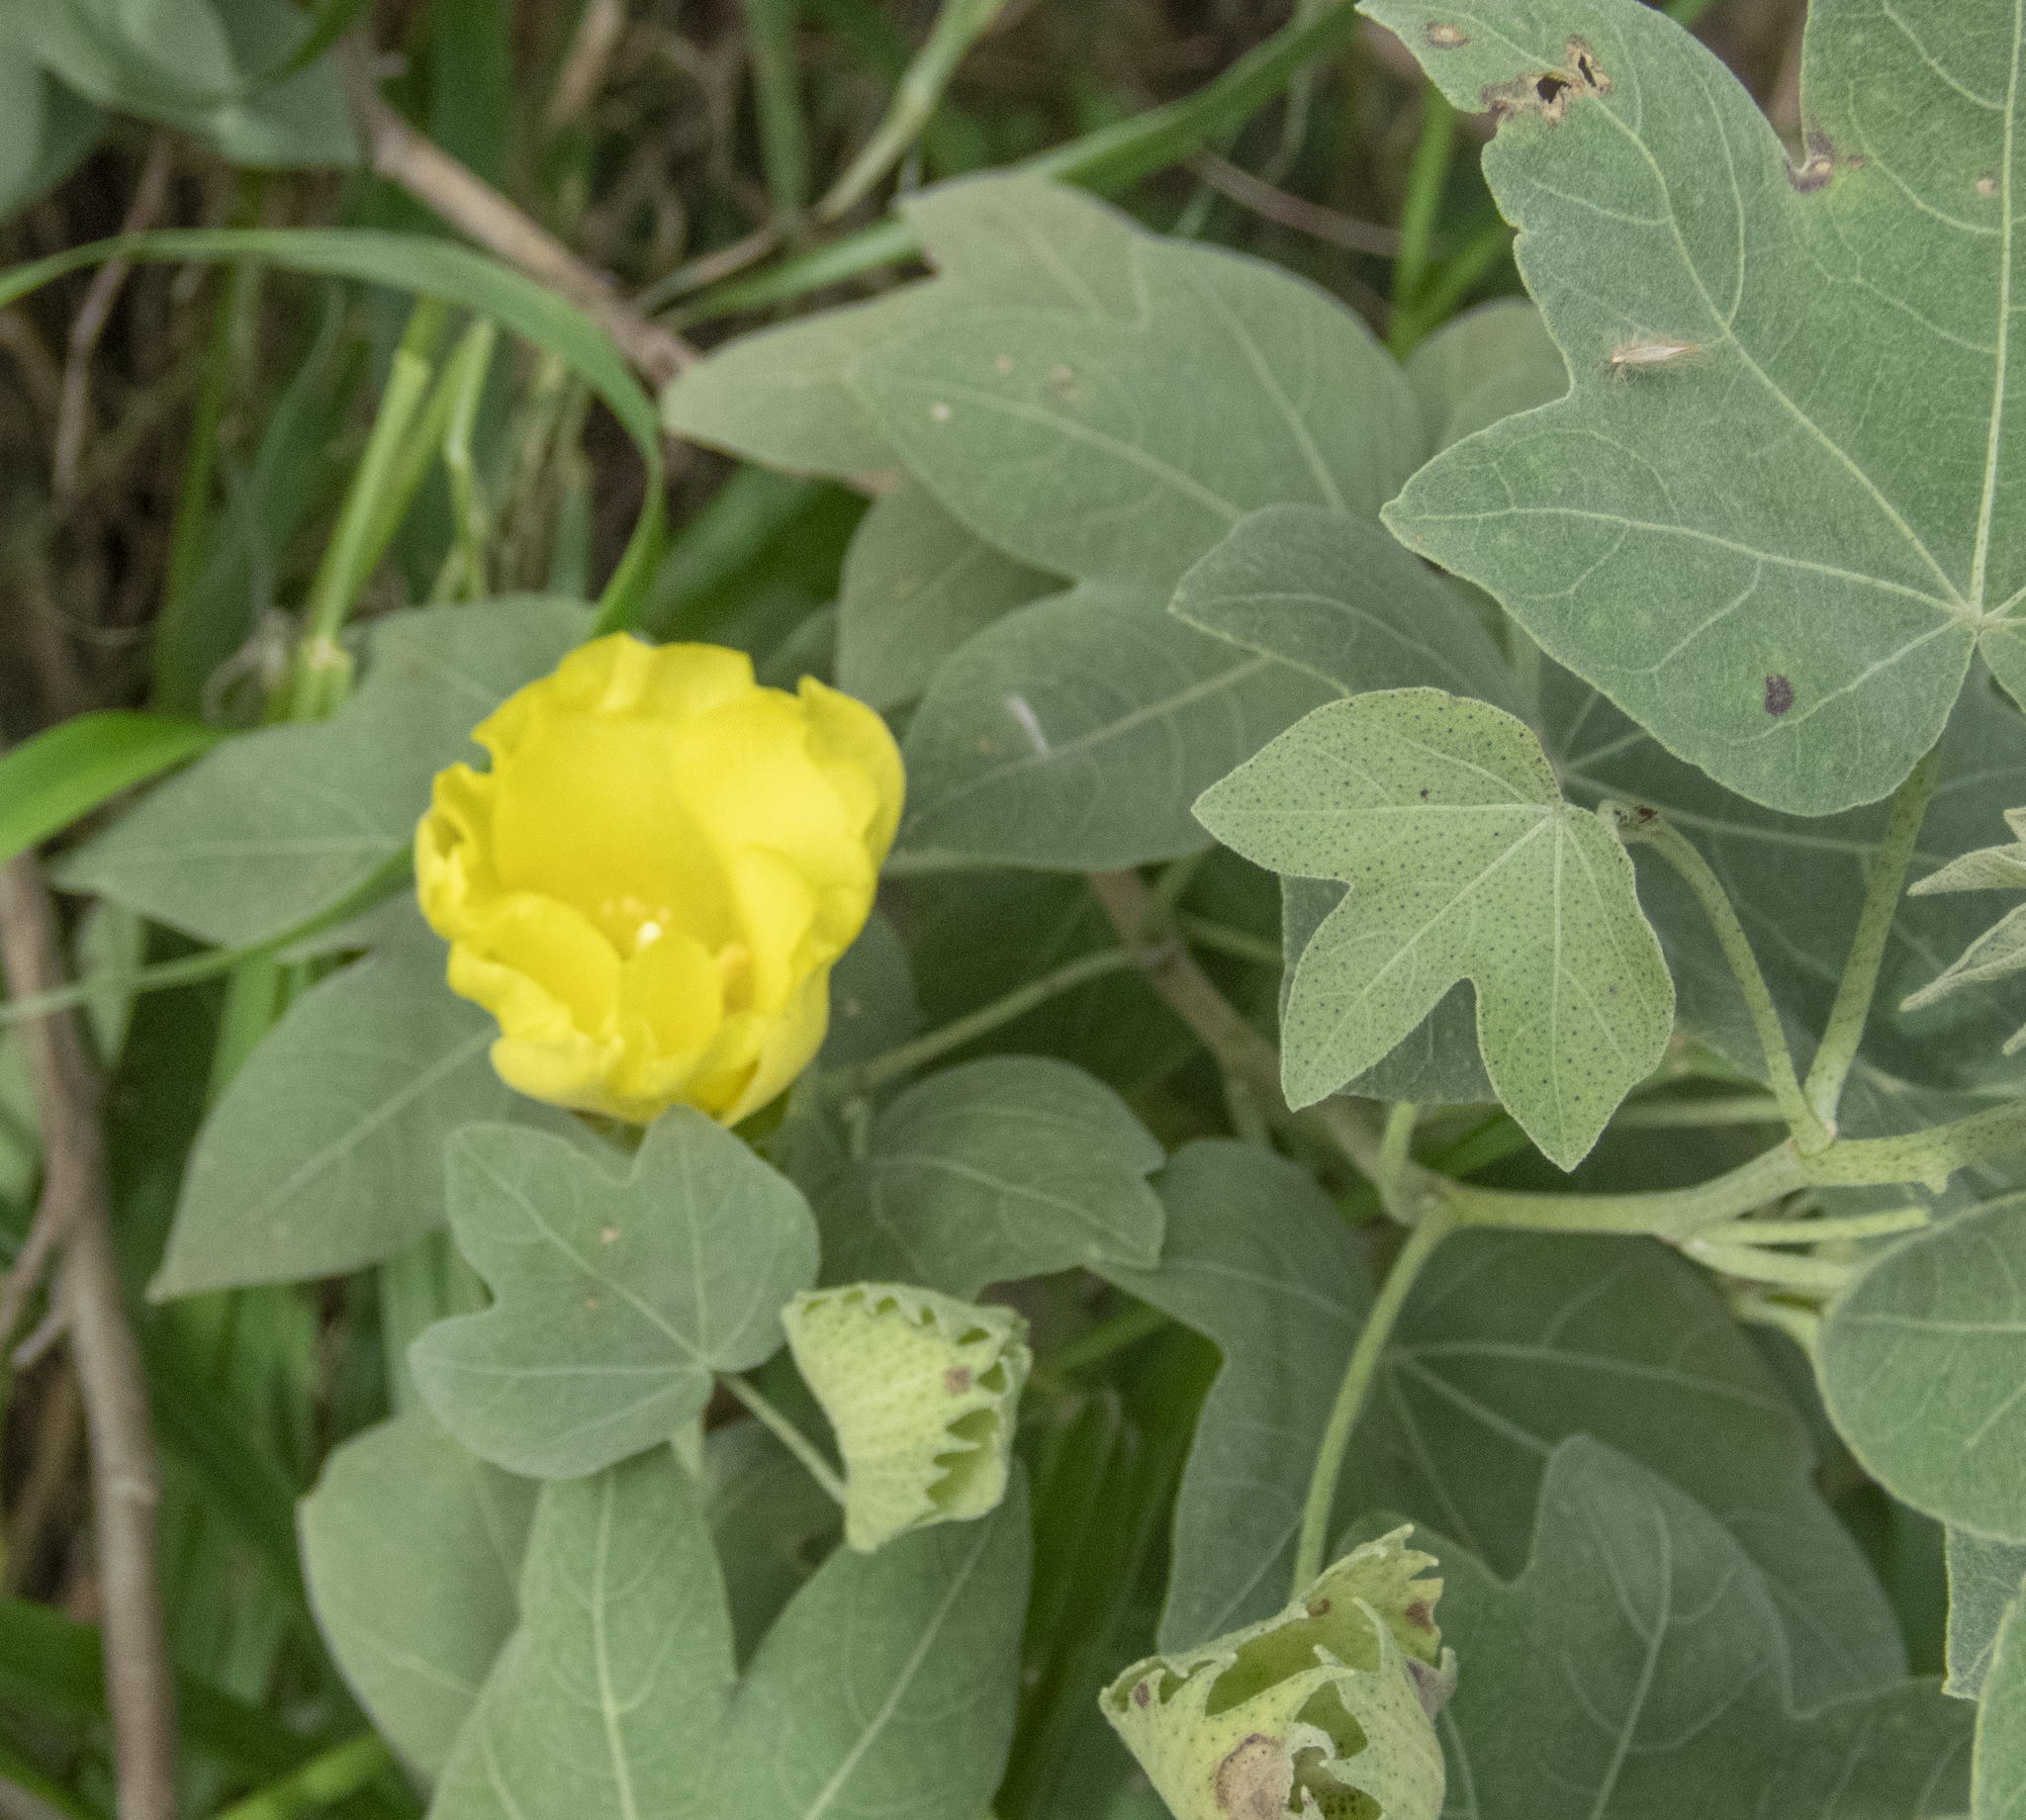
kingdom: Plantae
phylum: Tracheophyta
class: Magnoliopsida
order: Malvales
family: Malvaceae
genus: Gossypium
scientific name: Gossypium tomentosum
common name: Hawaiian cotton
